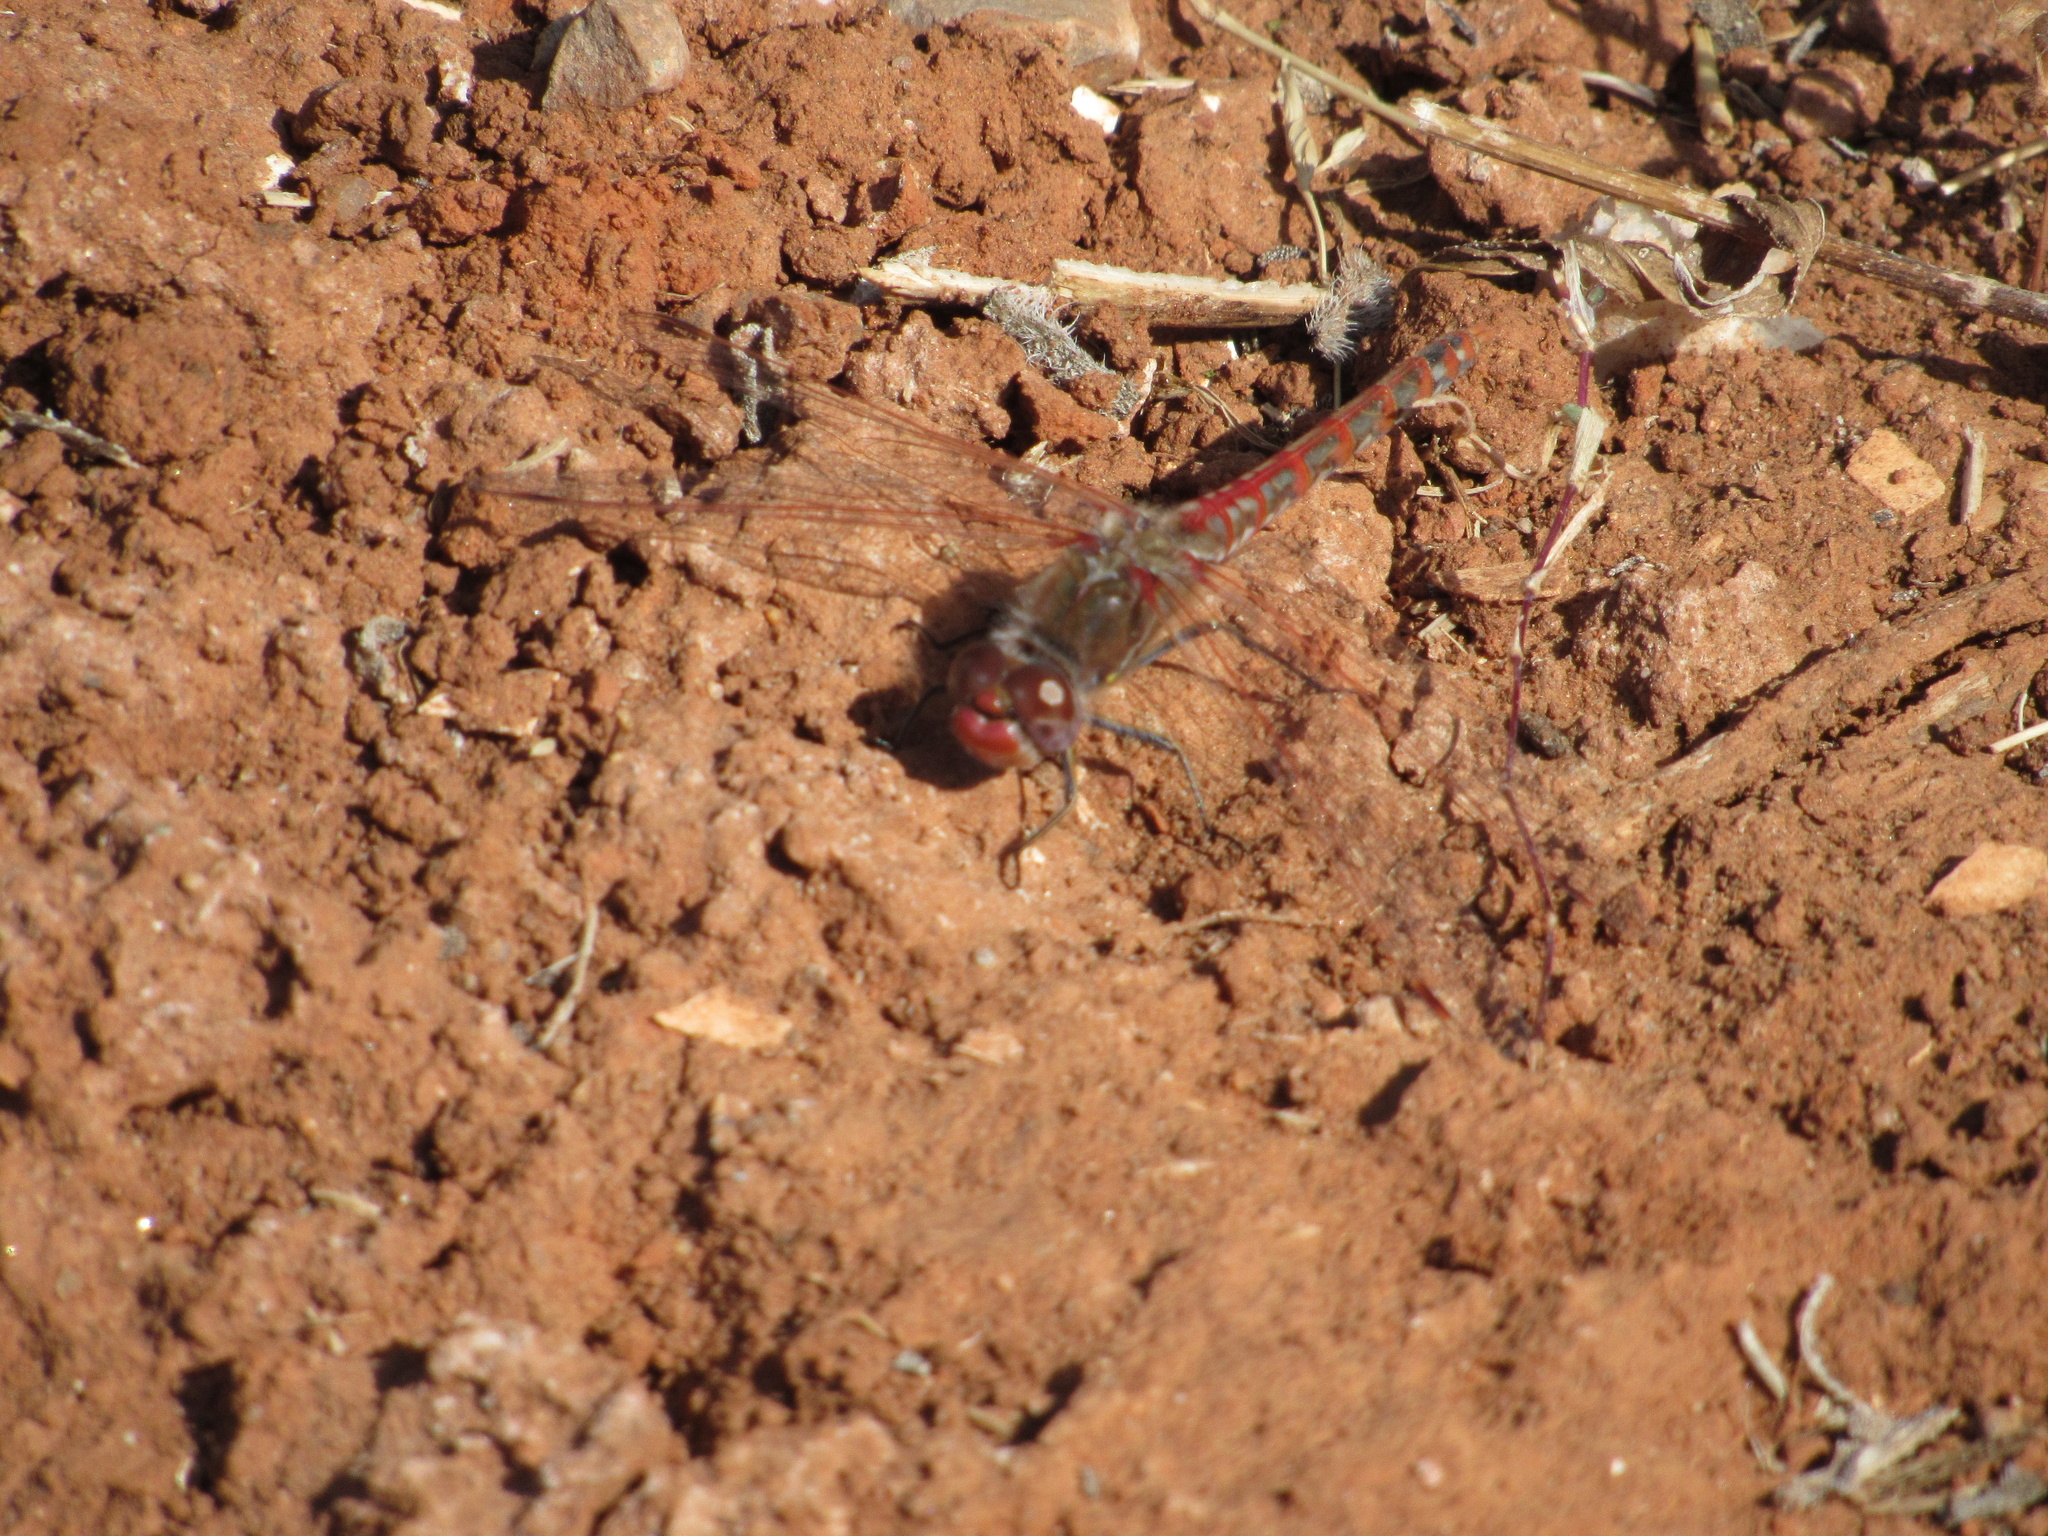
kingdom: Animalia
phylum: Arthropoda
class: Insecta
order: Odonata
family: Libellulidae
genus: Sympetrum
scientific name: Sympetrum corruptum
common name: Variegated meadowhawk
